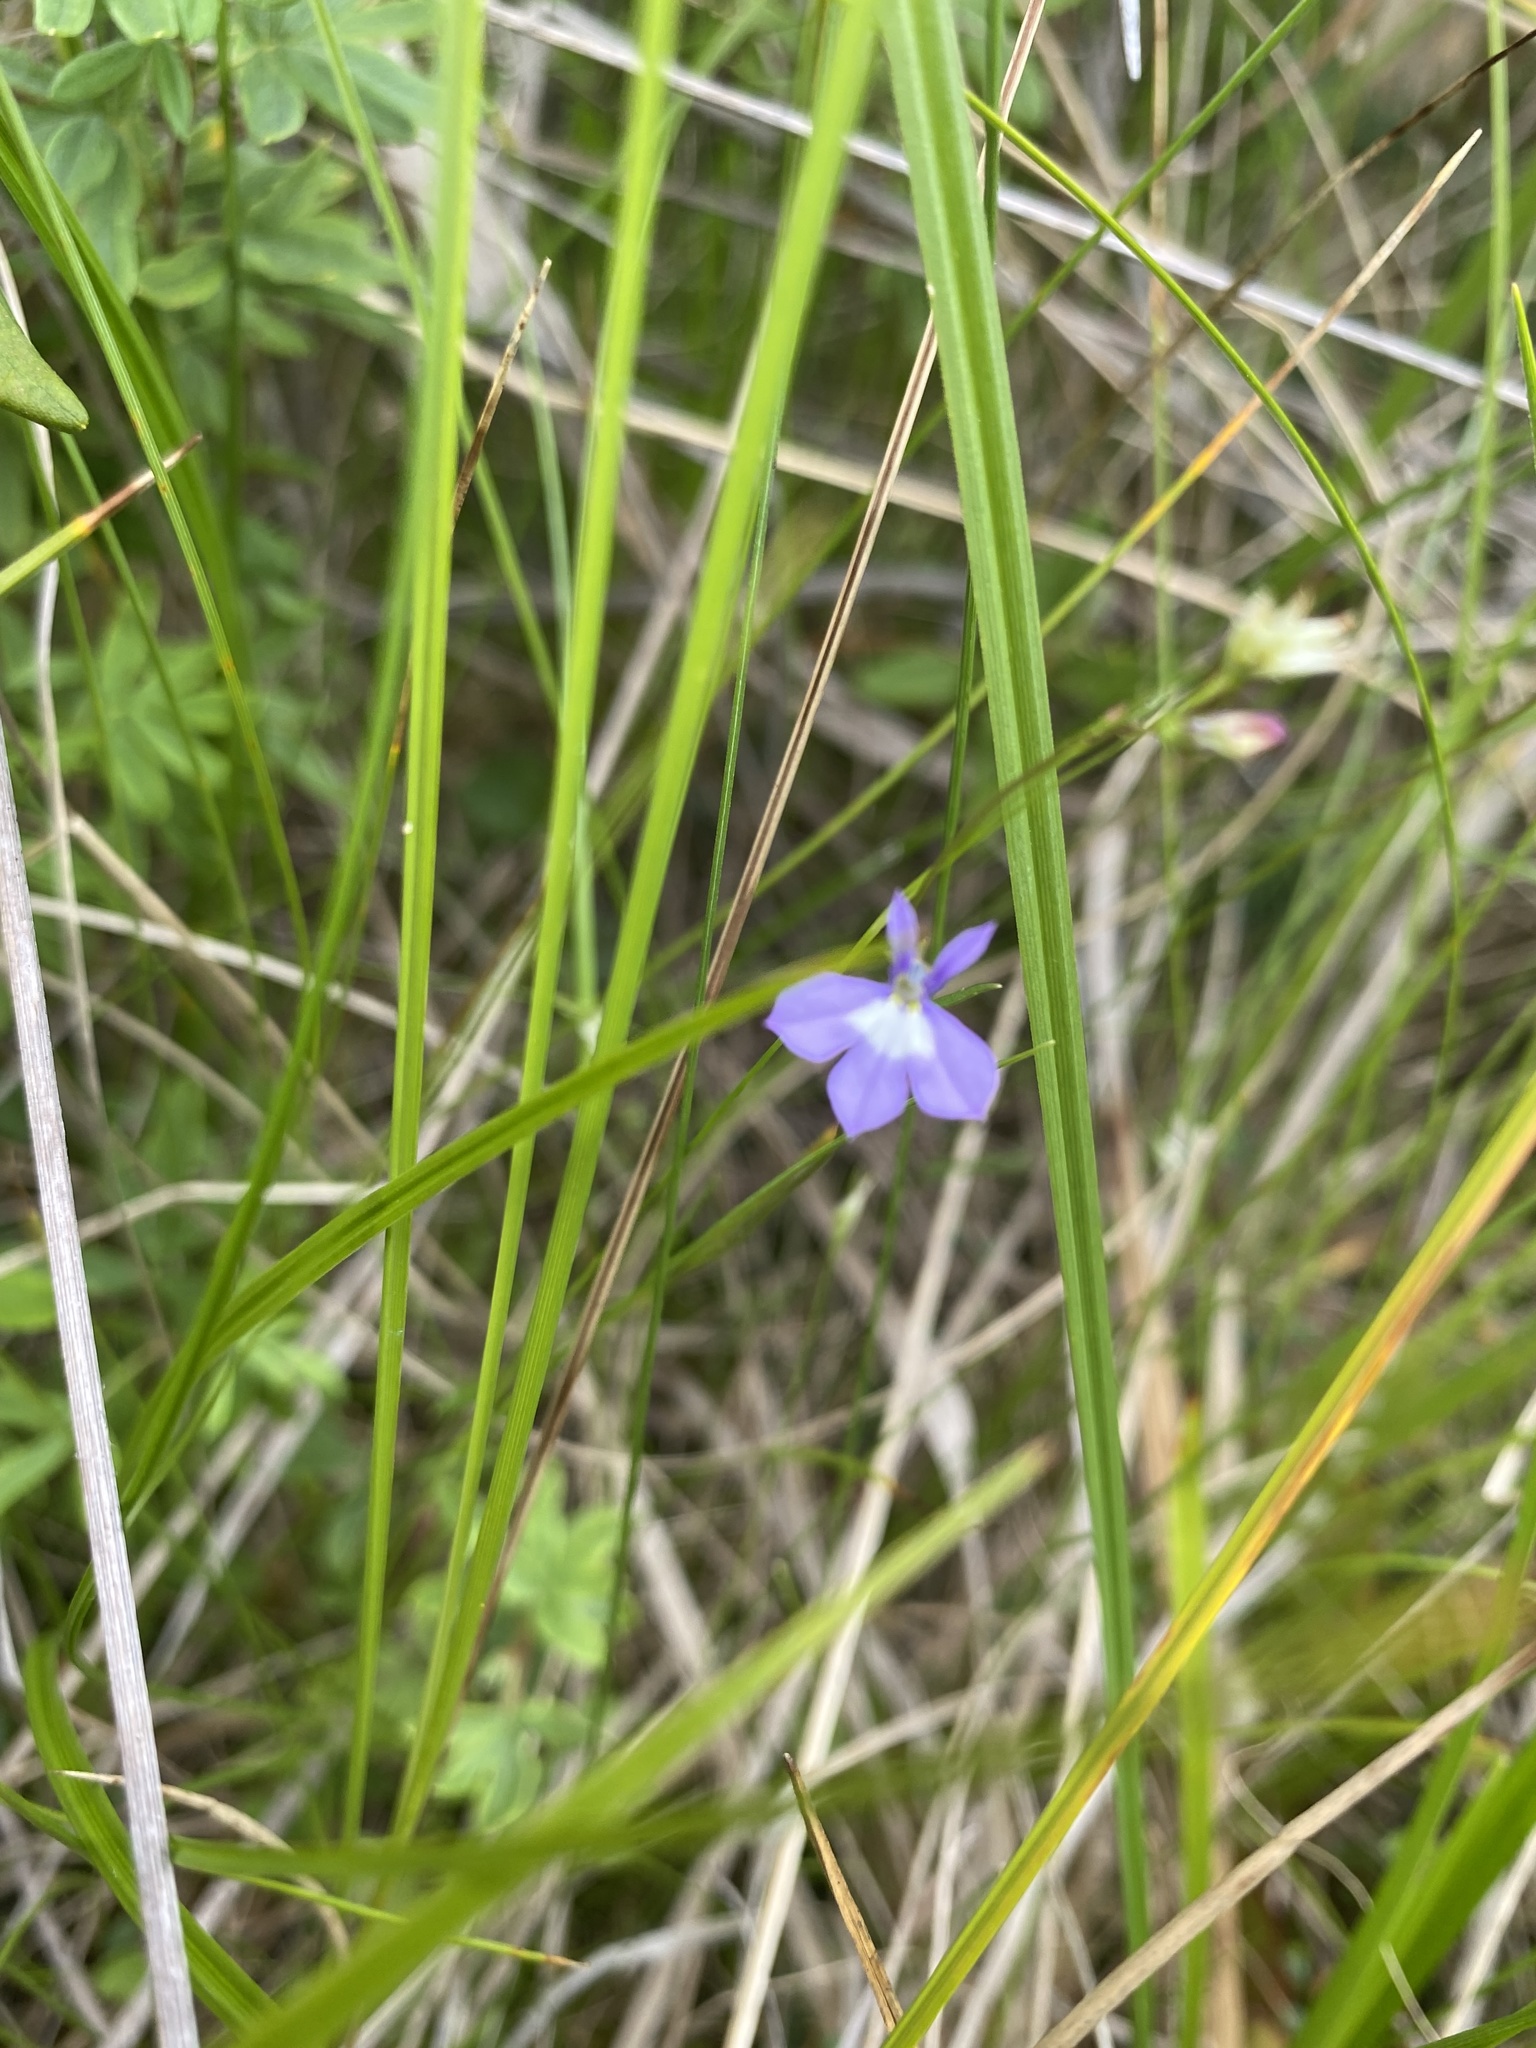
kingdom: Plantae
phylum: Tracheophyta
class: Magnoliopsida
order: Asterales
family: Campanulaceae
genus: Lobelia
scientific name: Lobelia kalmii
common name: Kalm's lobelia
